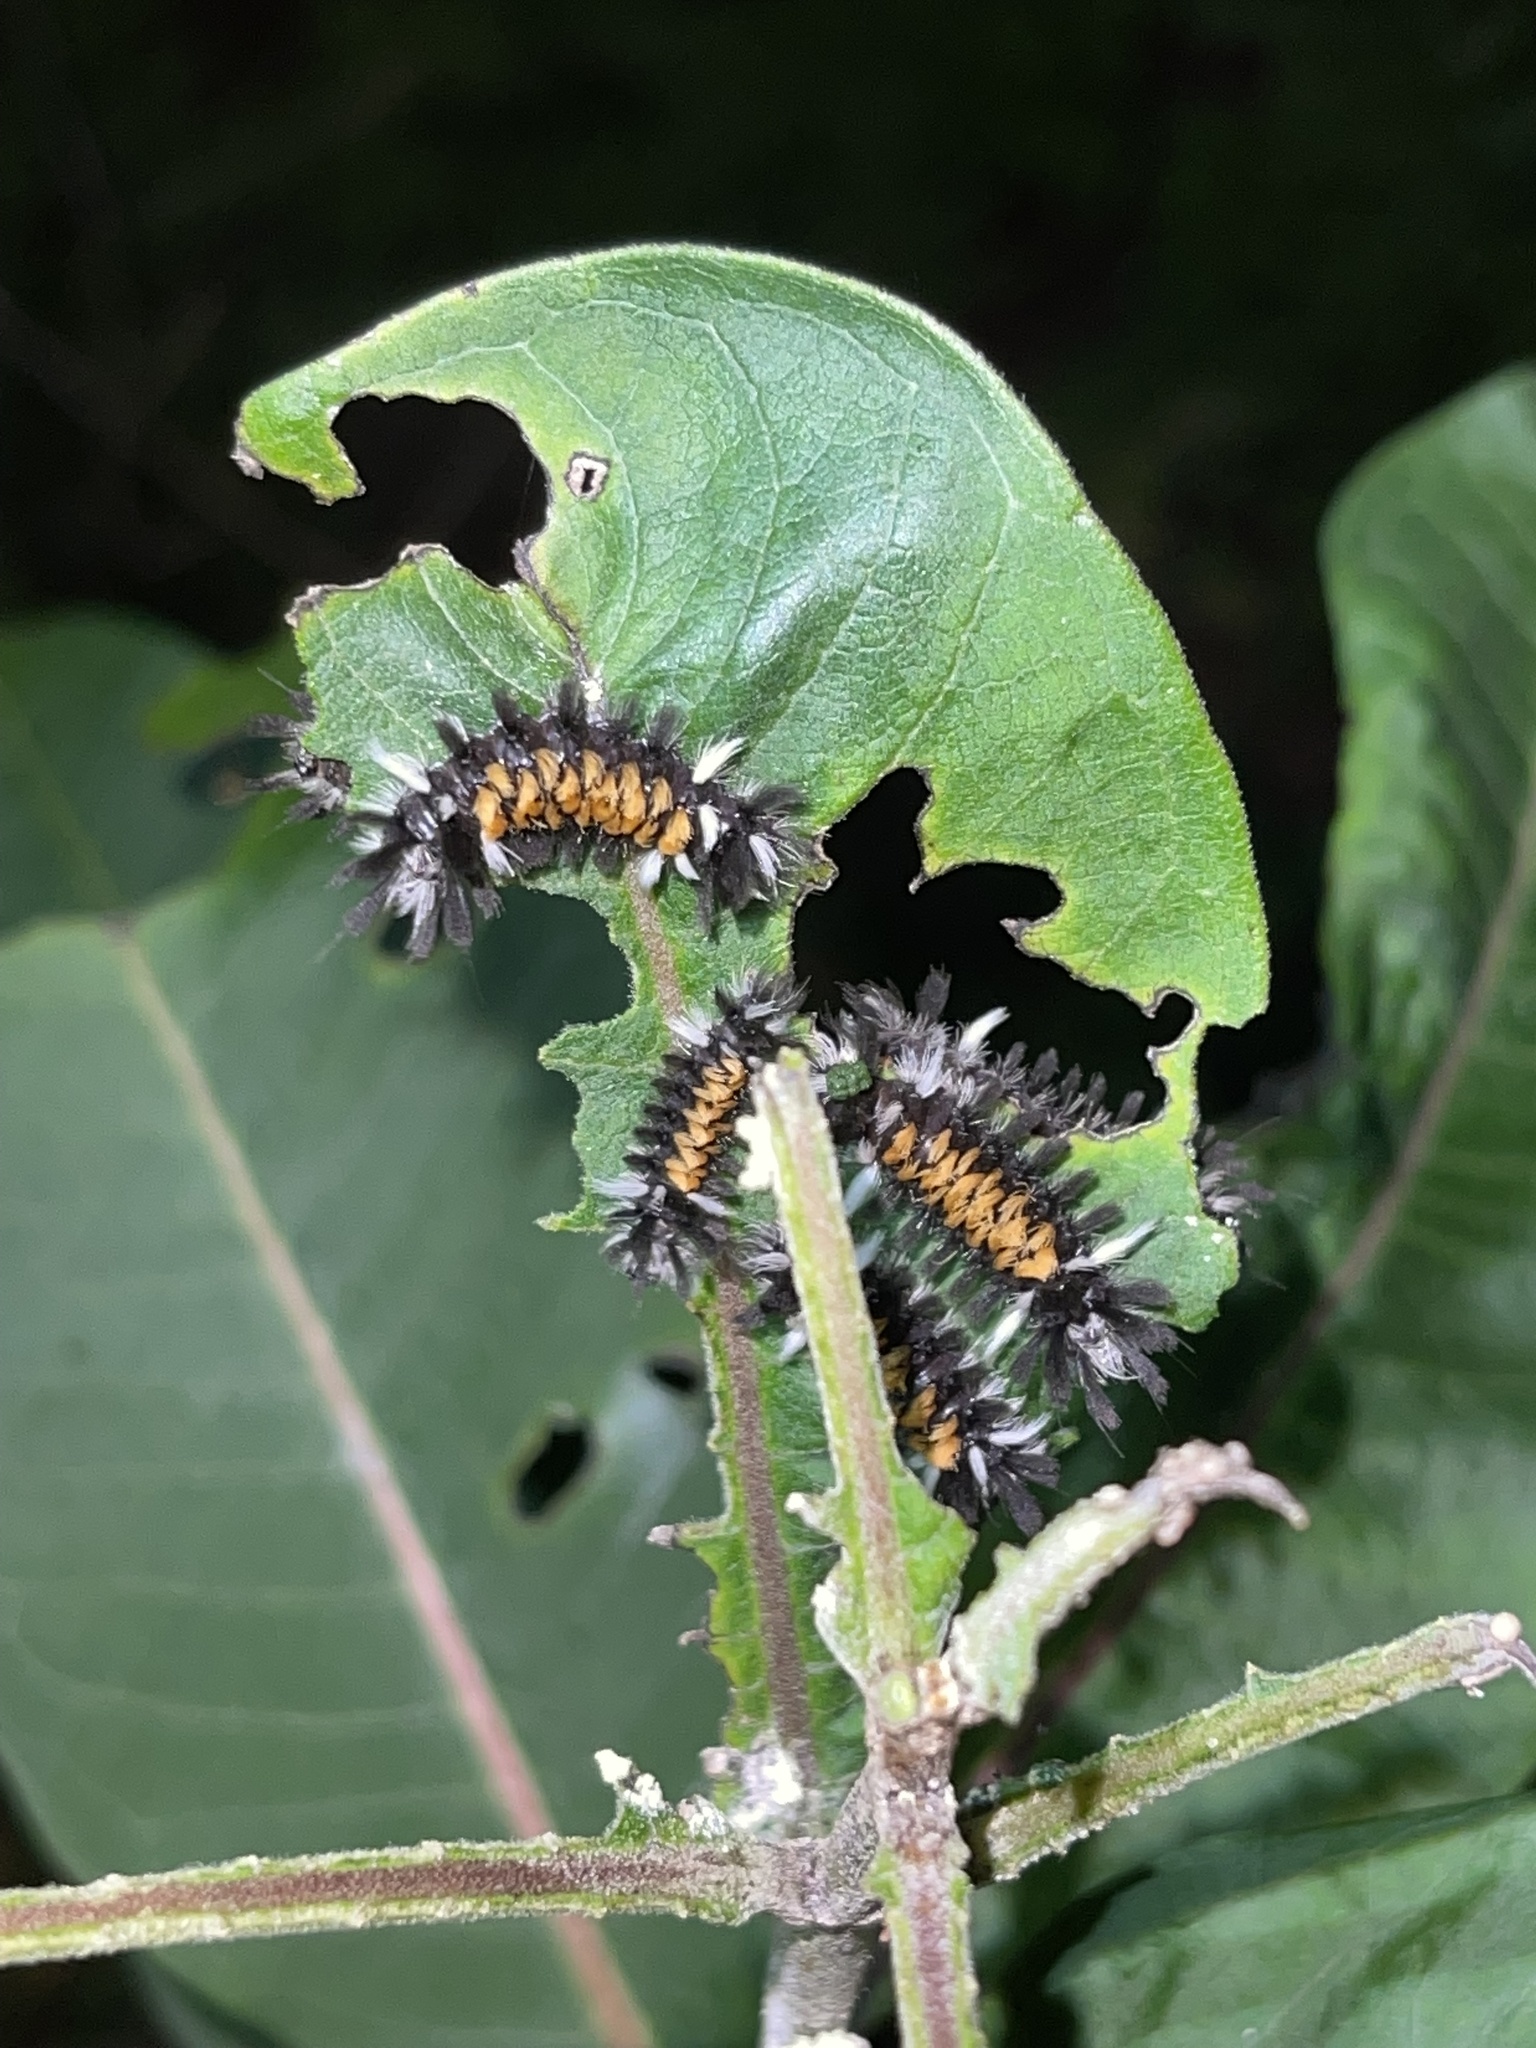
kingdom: Animalia
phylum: Arthropoda
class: Insecta
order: Lepidoptera
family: Erebidae
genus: Euchaetes
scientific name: Euchaetes egle
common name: Milkweed tussock moth
